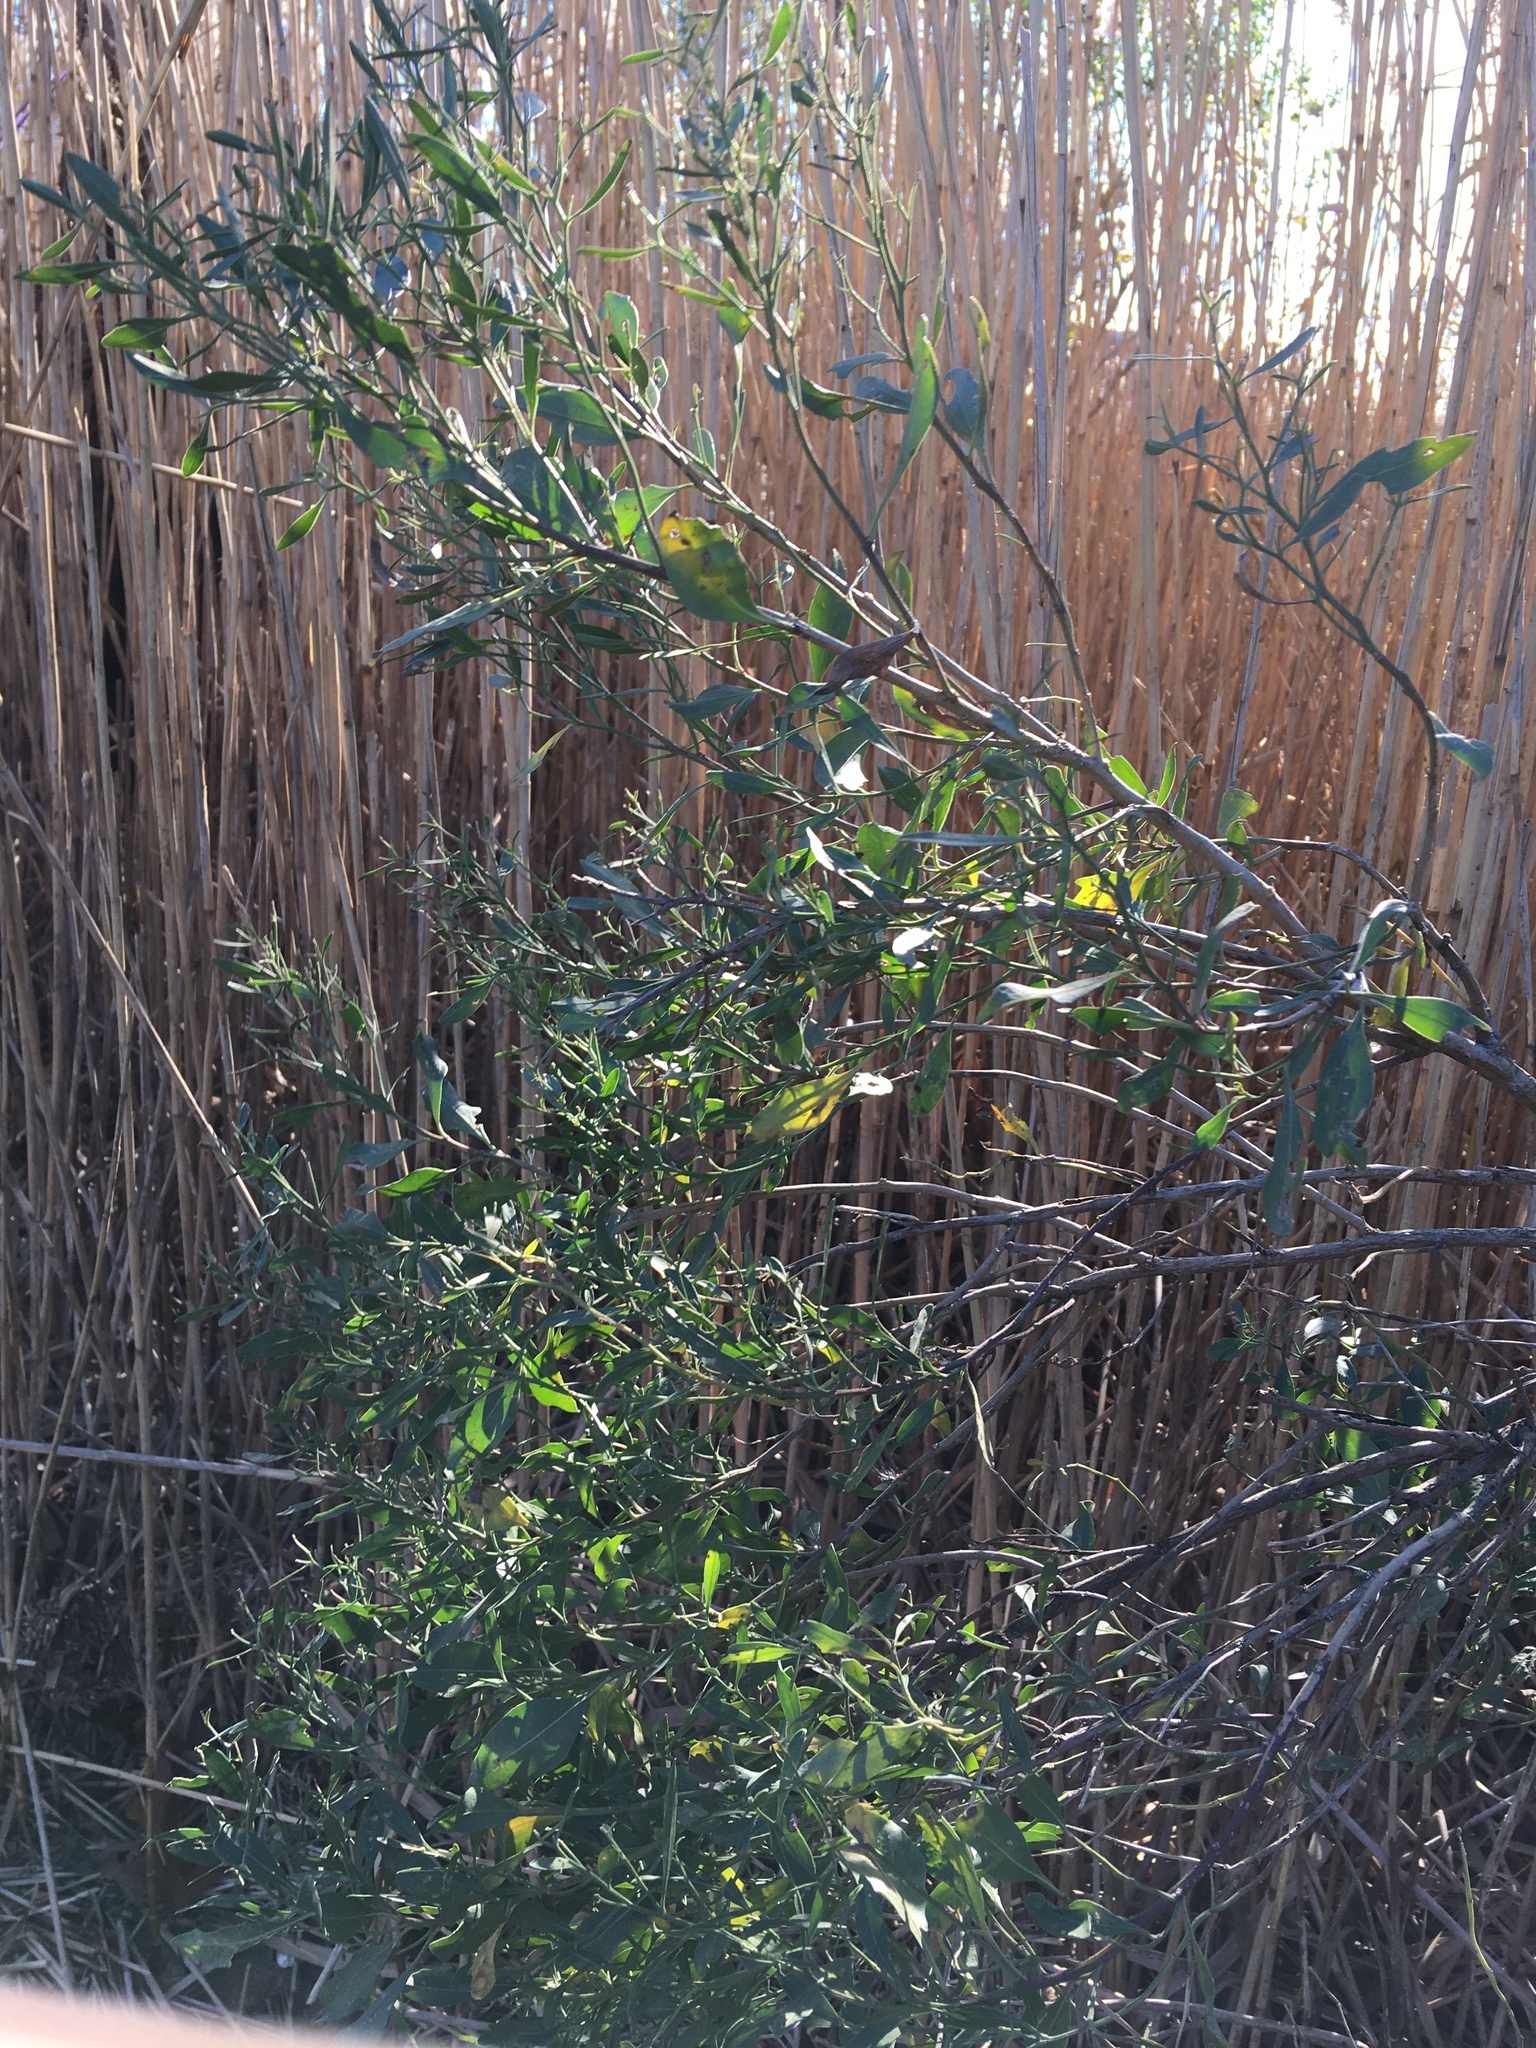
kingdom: Plantae
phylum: Tracheophyta
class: Magnoliopsida
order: Asterales
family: Asteraceae
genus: Baccharis
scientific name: Baccharis halimifolia
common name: Eastern baccharis
